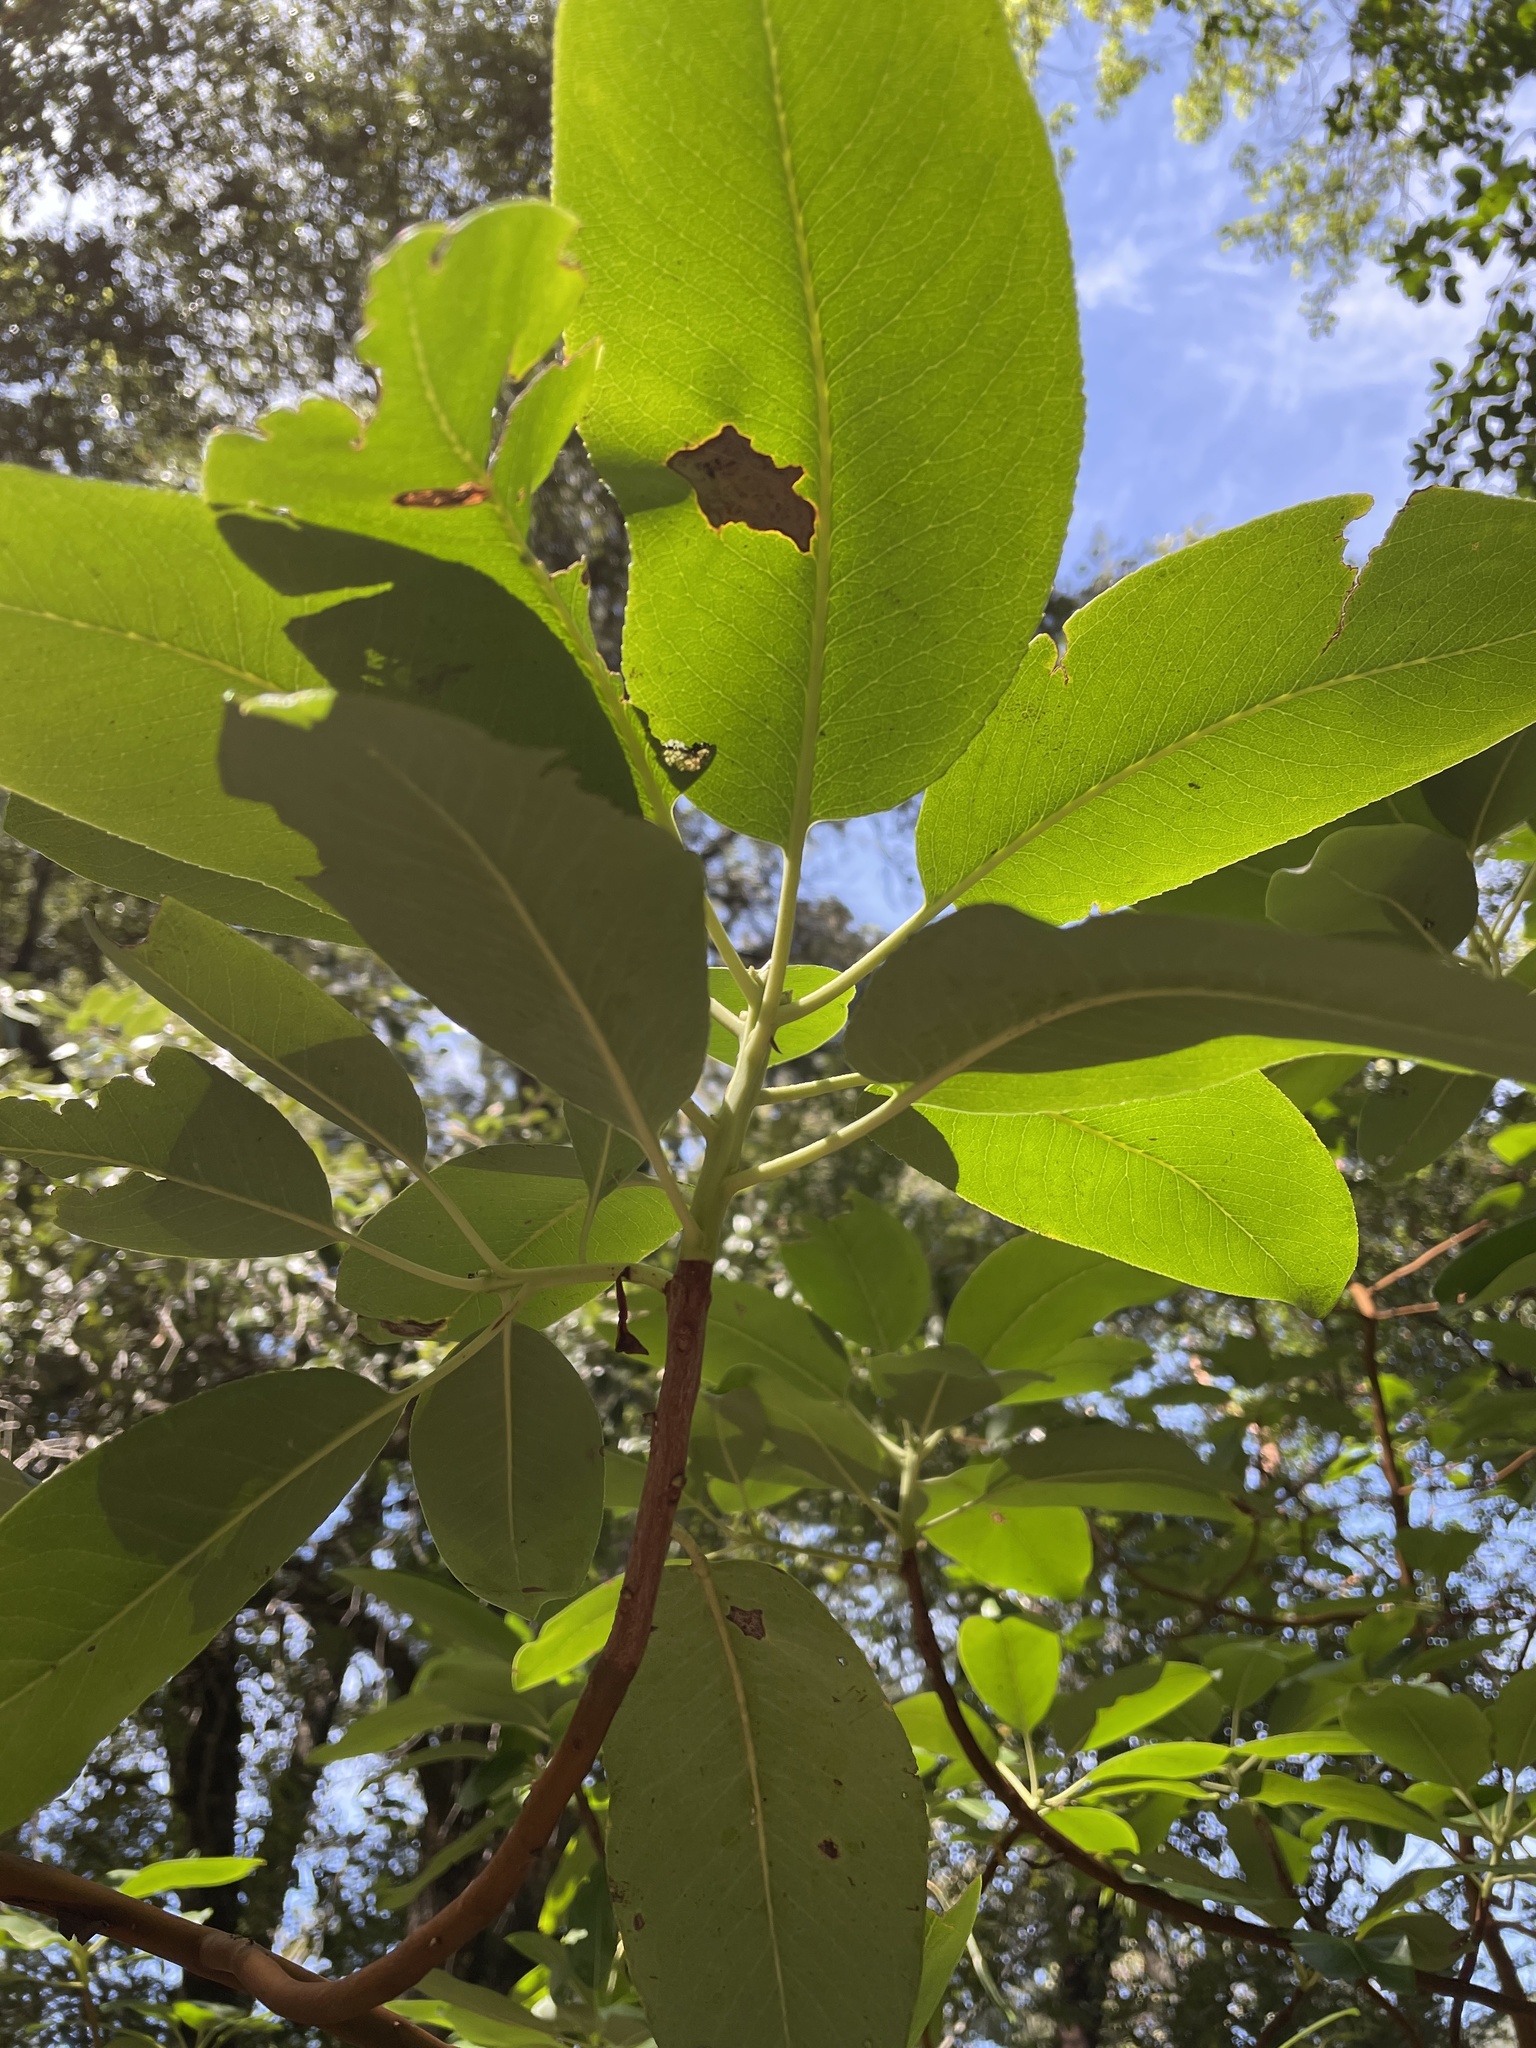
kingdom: Plantae
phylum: Tracheophyta
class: Magnoliopsida
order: Ericales
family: Ericaceae
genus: Arbutus
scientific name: Arbutus menziesii
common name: Pacific madrone
